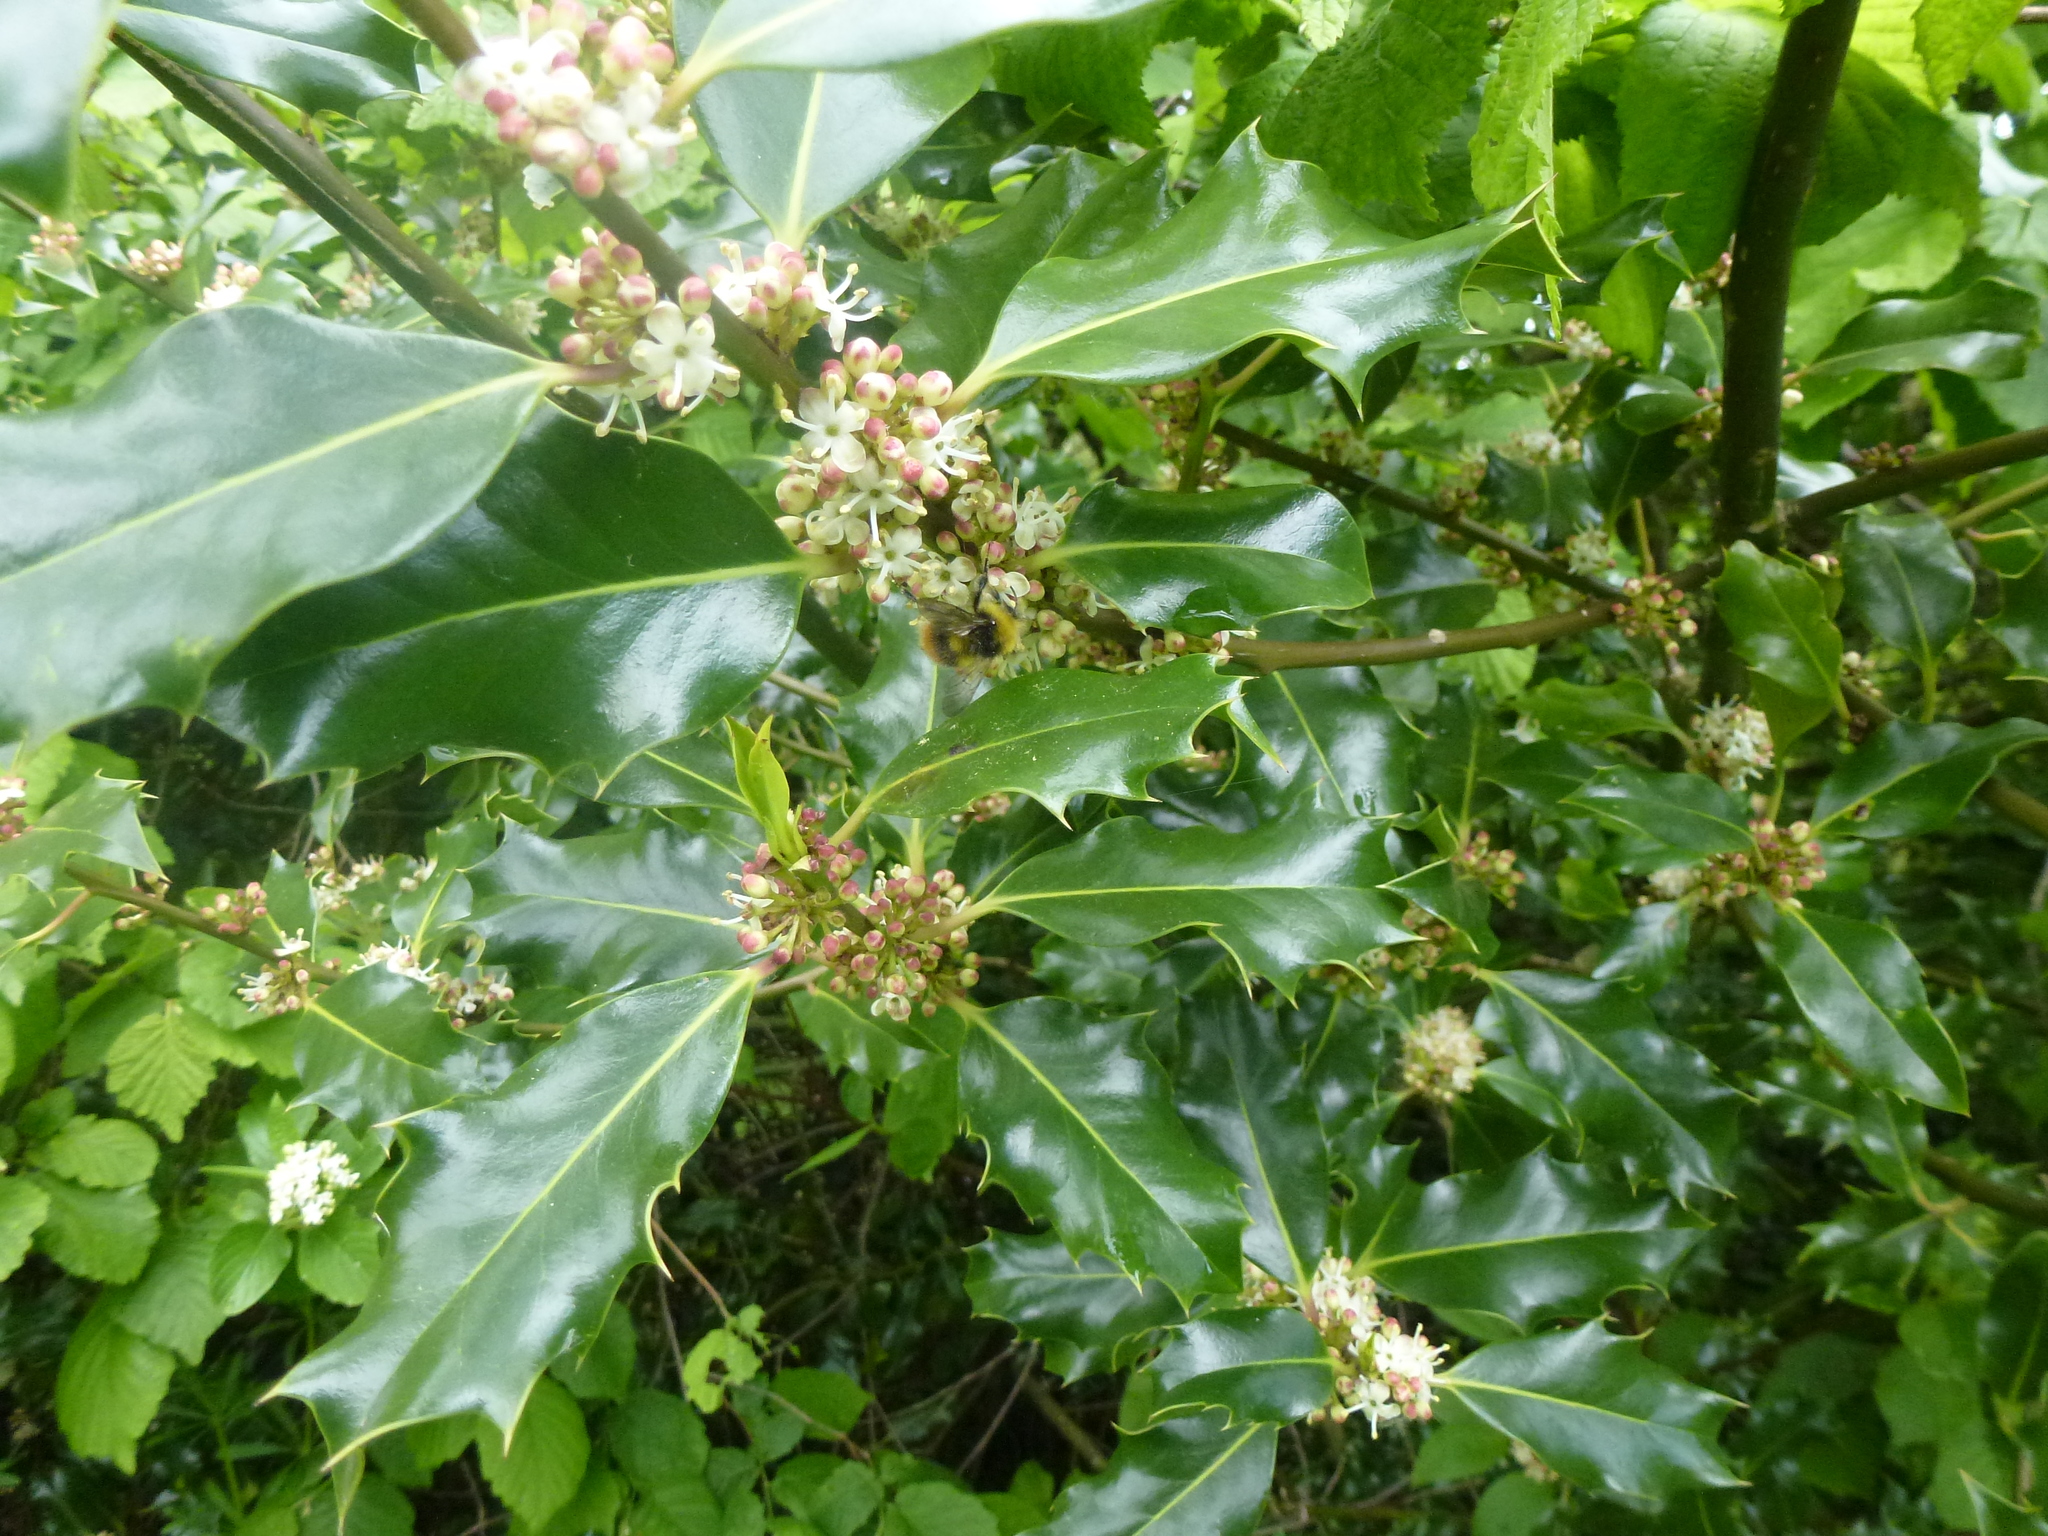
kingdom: Animalia
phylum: Arthropoda
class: Insecta
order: Hymenoptera
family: Apidae
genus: Bombus
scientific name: Bombus pratorum
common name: Early humble-bee
